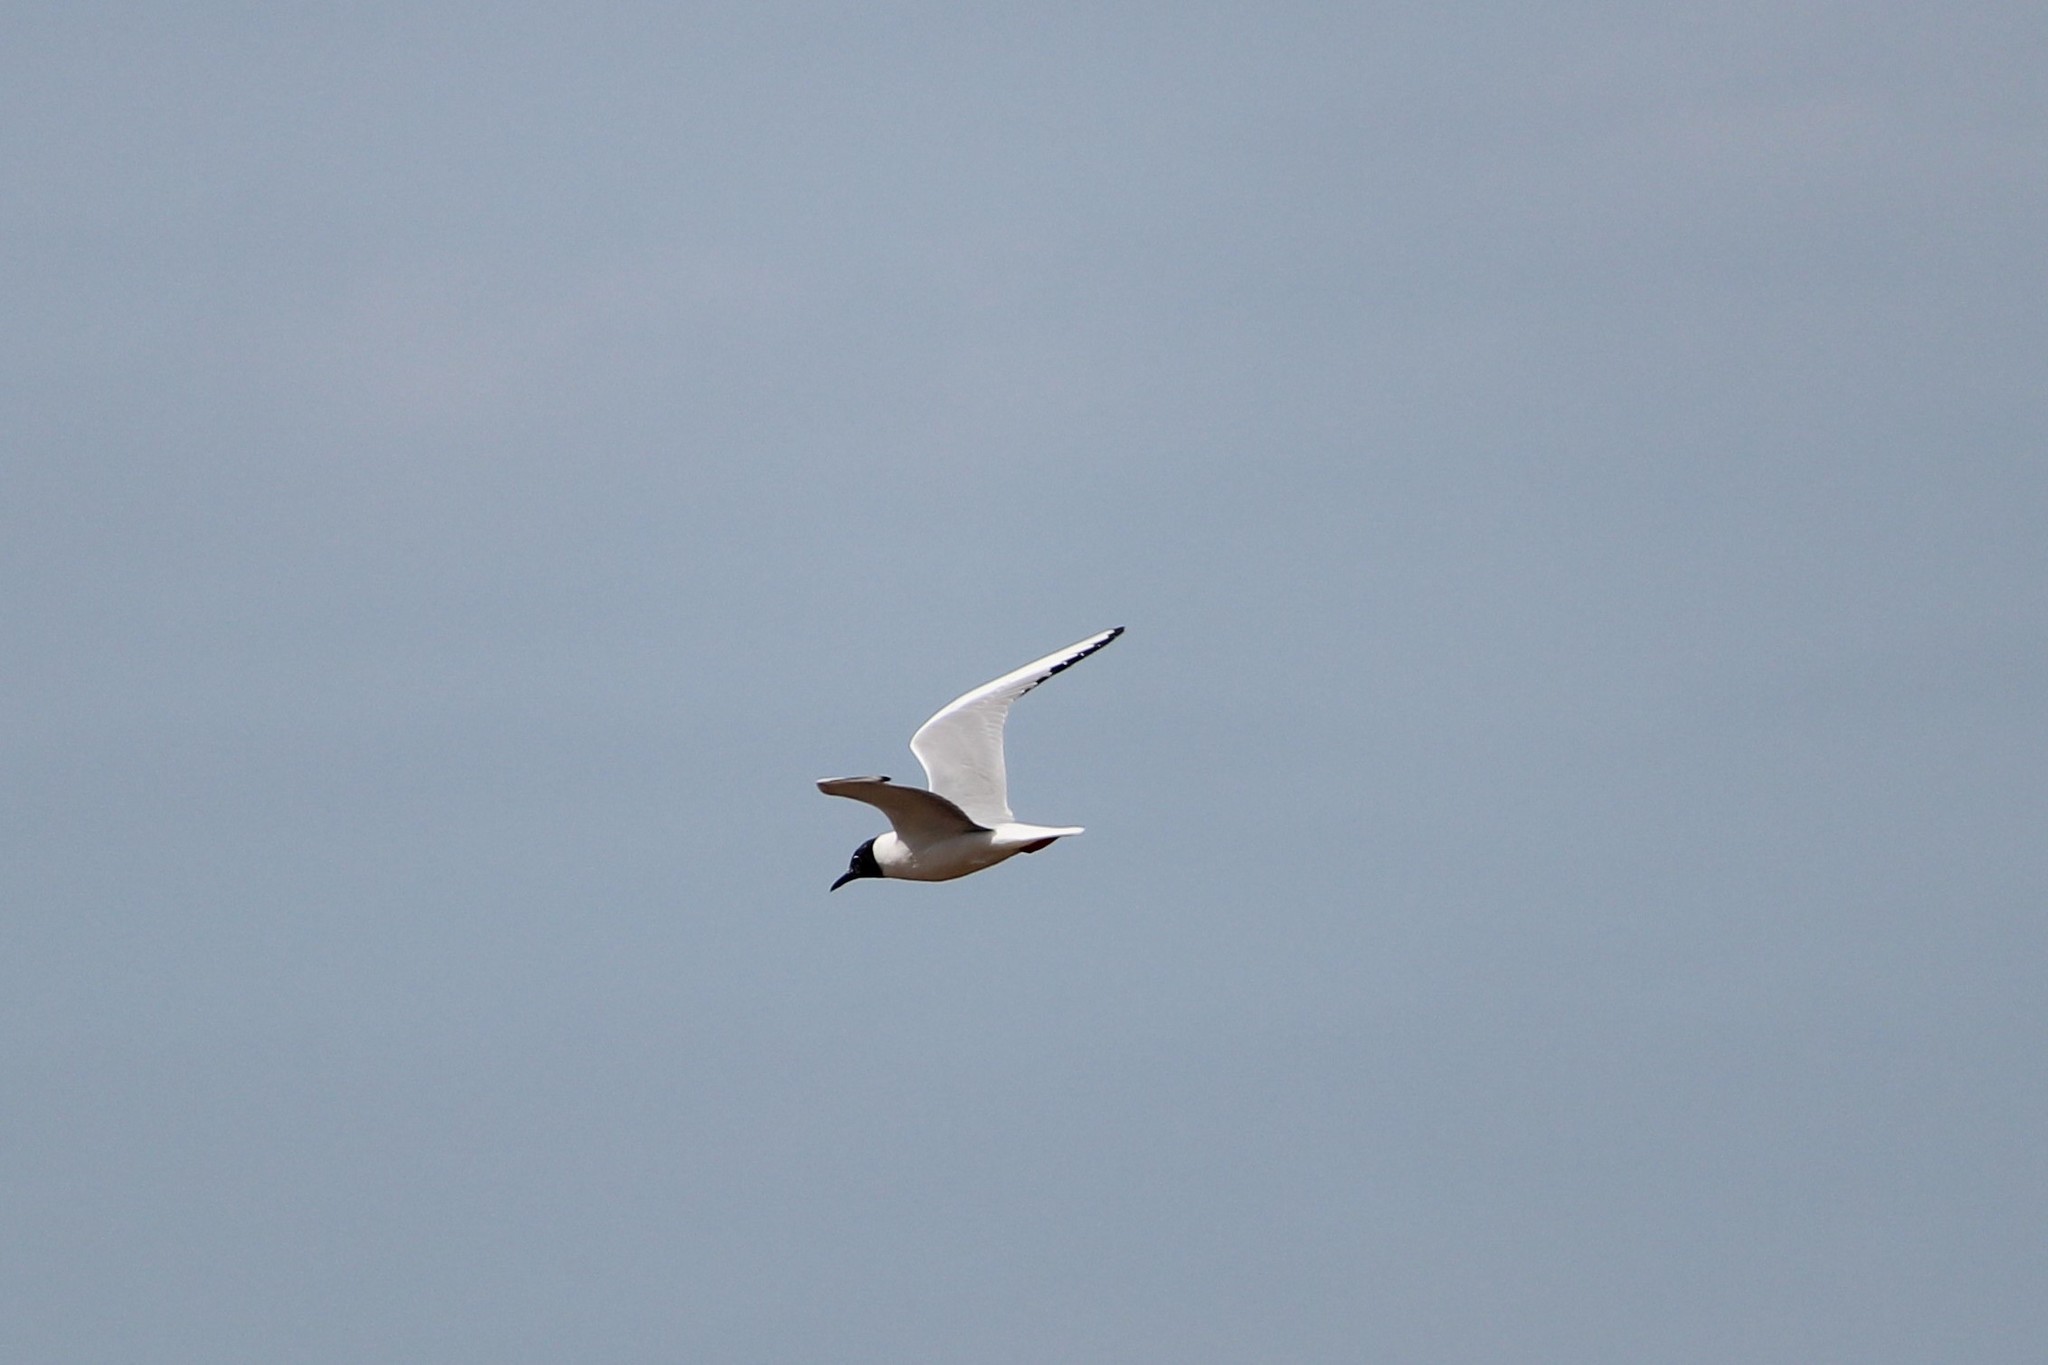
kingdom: Animalia
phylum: Chordata
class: Aves
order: Charadriiformes
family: Laridae
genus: Chroicocephalus
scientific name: Chroicocephalus philadelphia
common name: Bonaparte's gull
